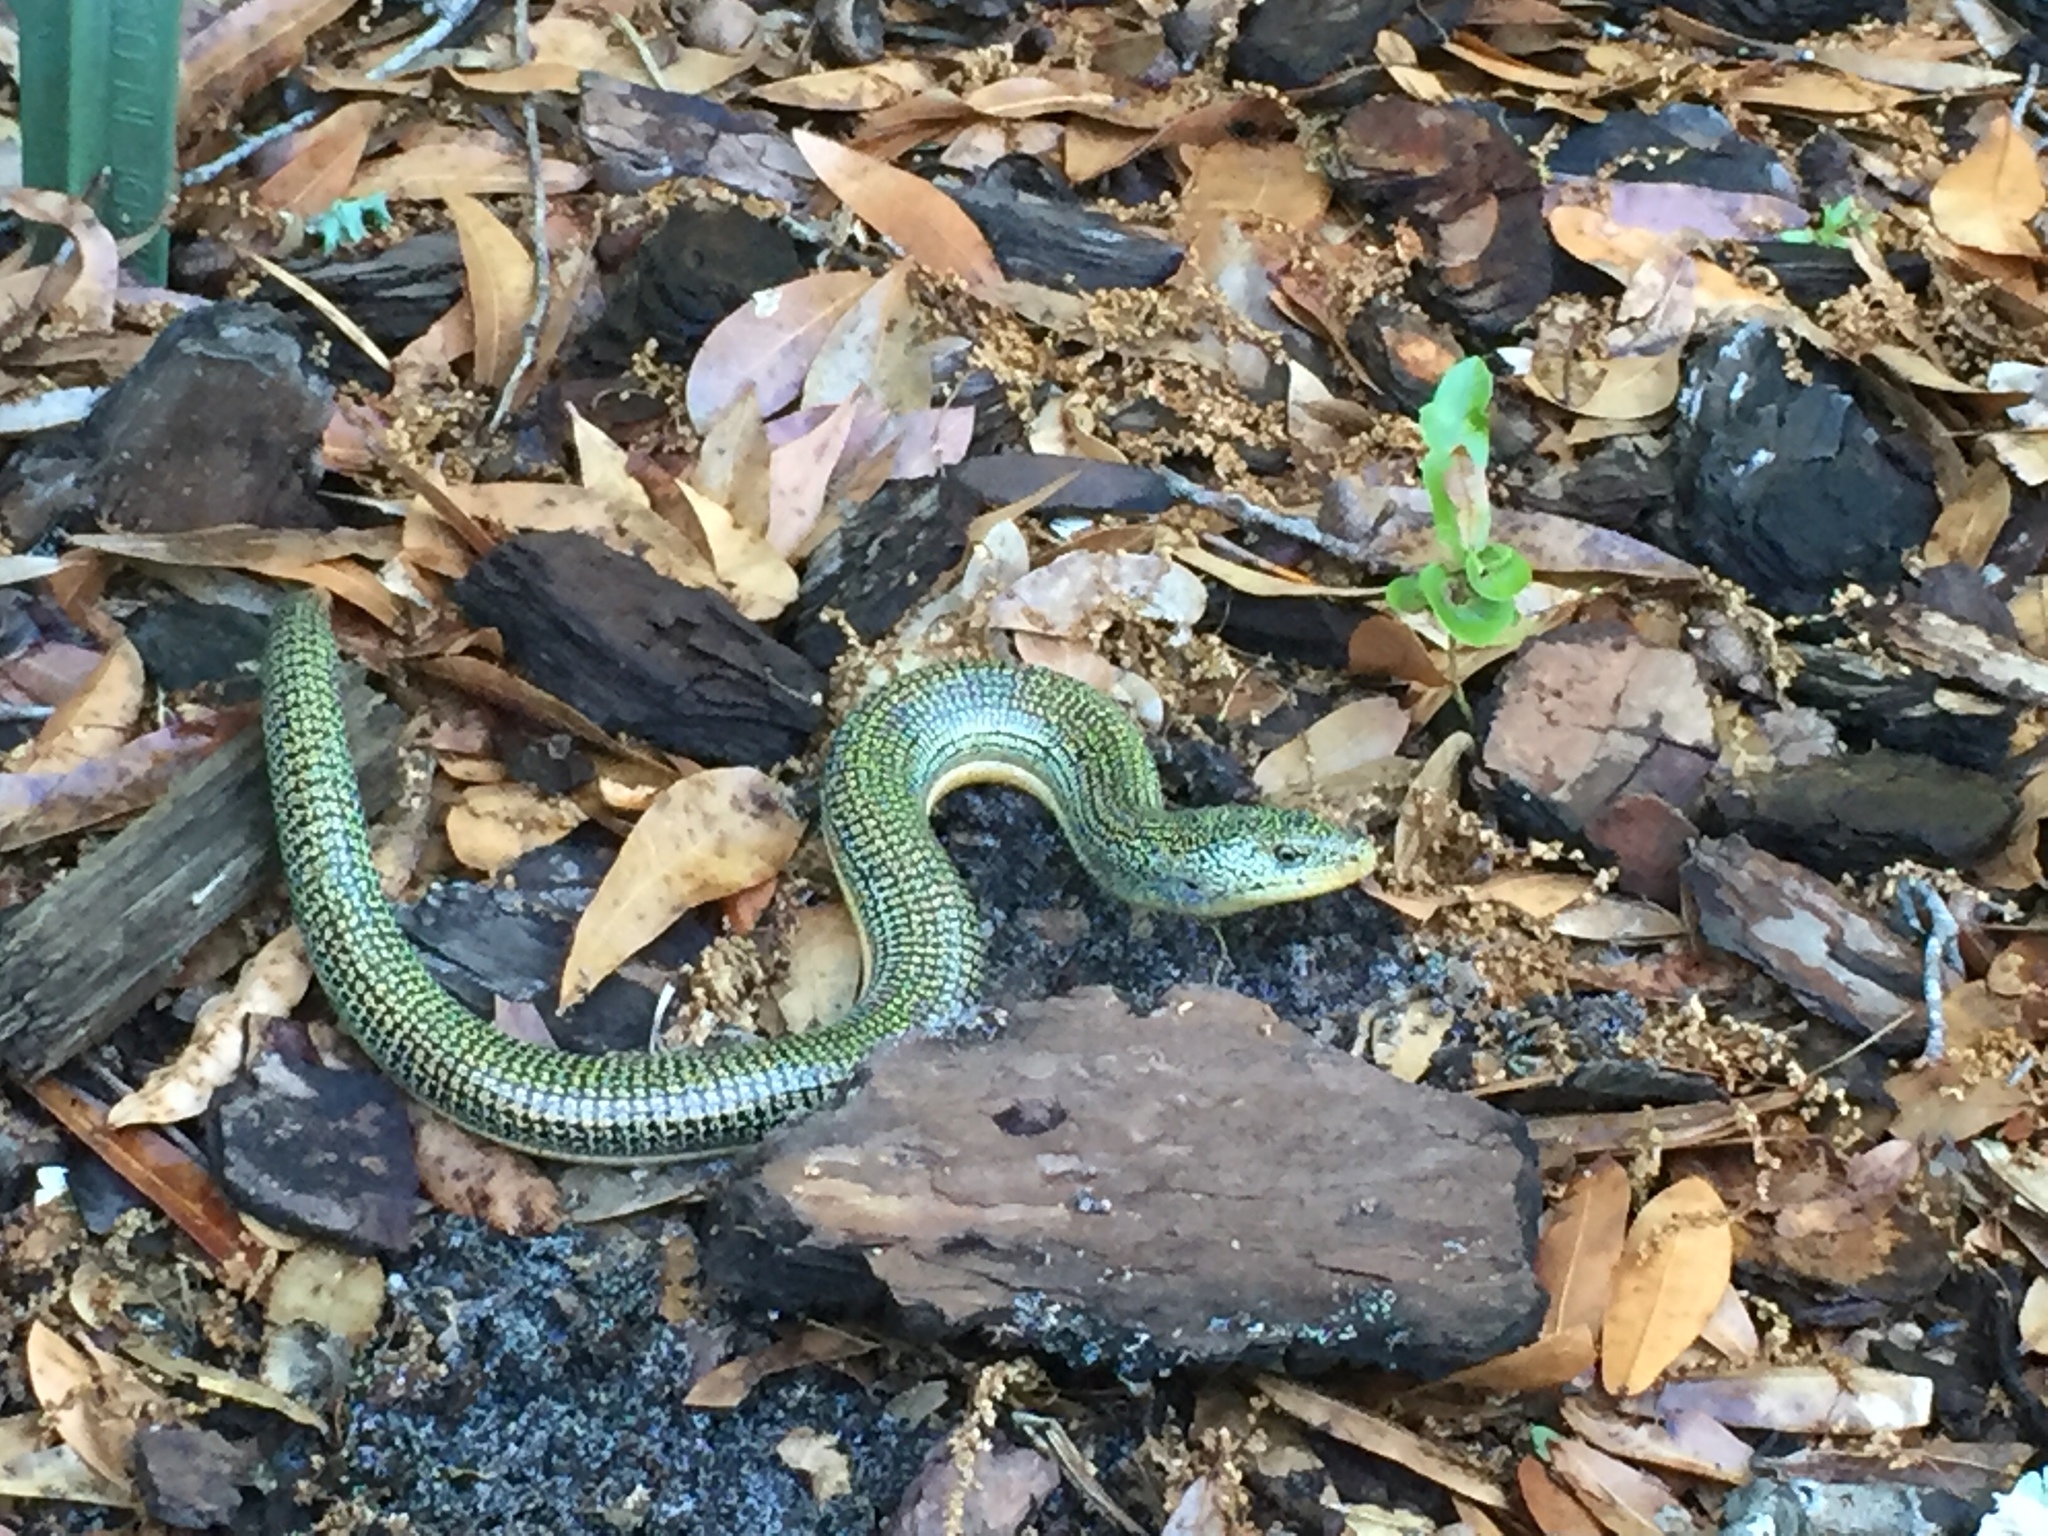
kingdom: Animalia
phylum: Chordata
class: Squamata
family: Anguidae
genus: Ophisaurus
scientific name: Ophisaurus ventralis
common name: Eastern glass lizard
